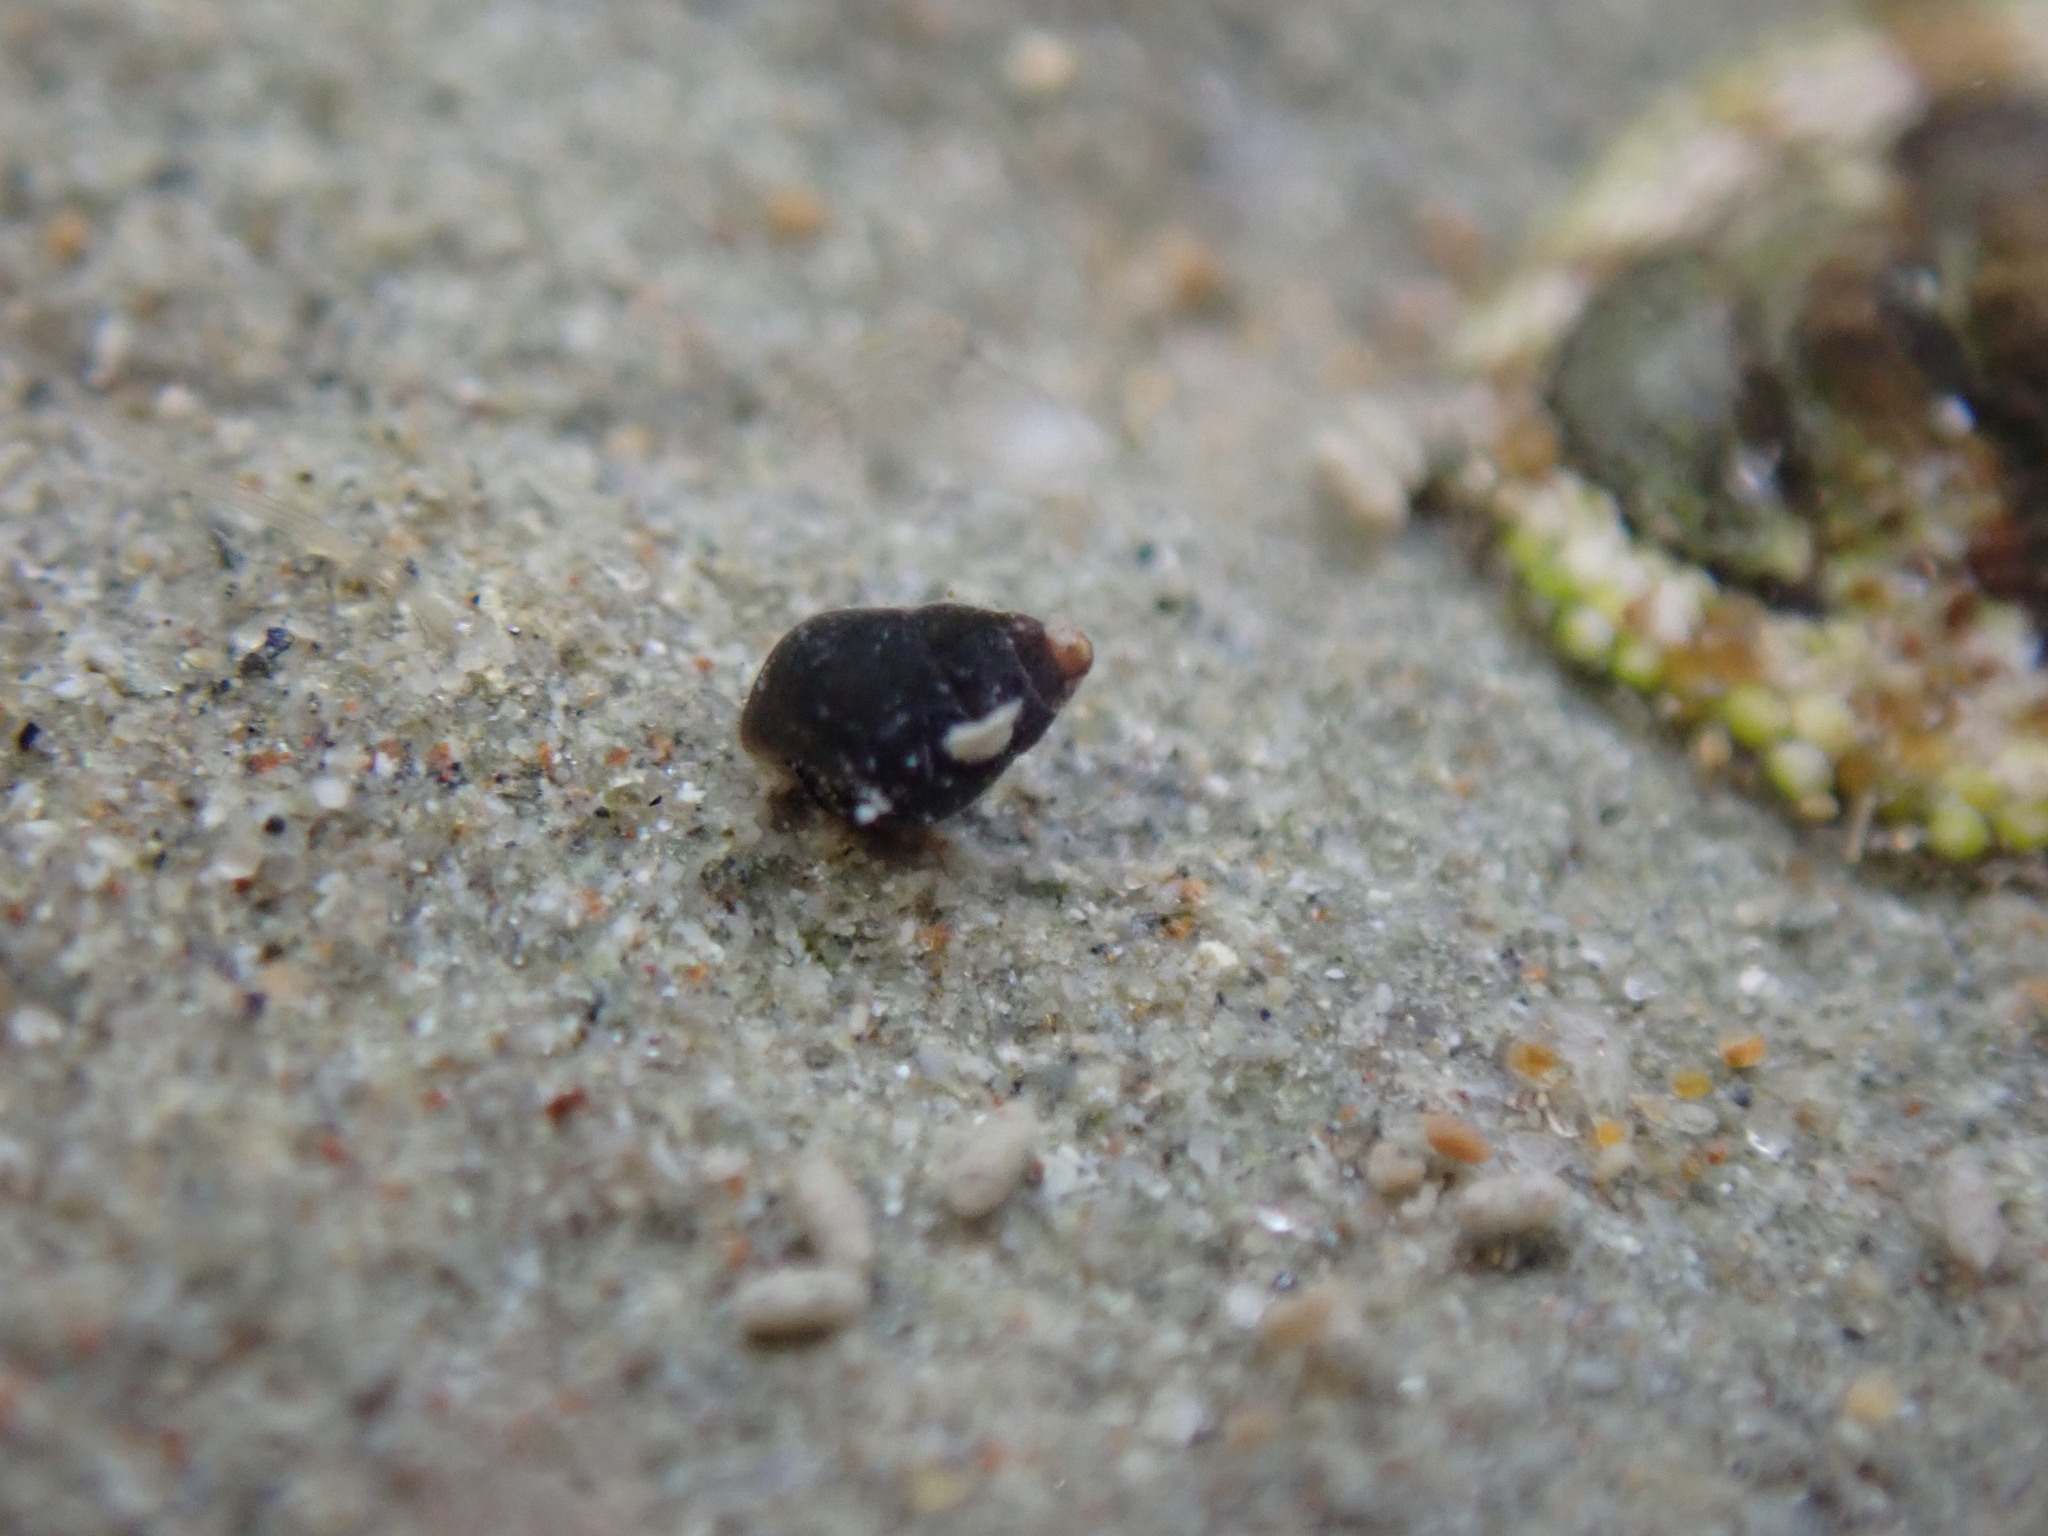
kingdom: Animalia
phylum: Mollusca
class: Gastropoda
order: Littorinimorpha
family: Eatoniellidae
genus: Eatoniella
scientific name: Eatoniella olivacea
